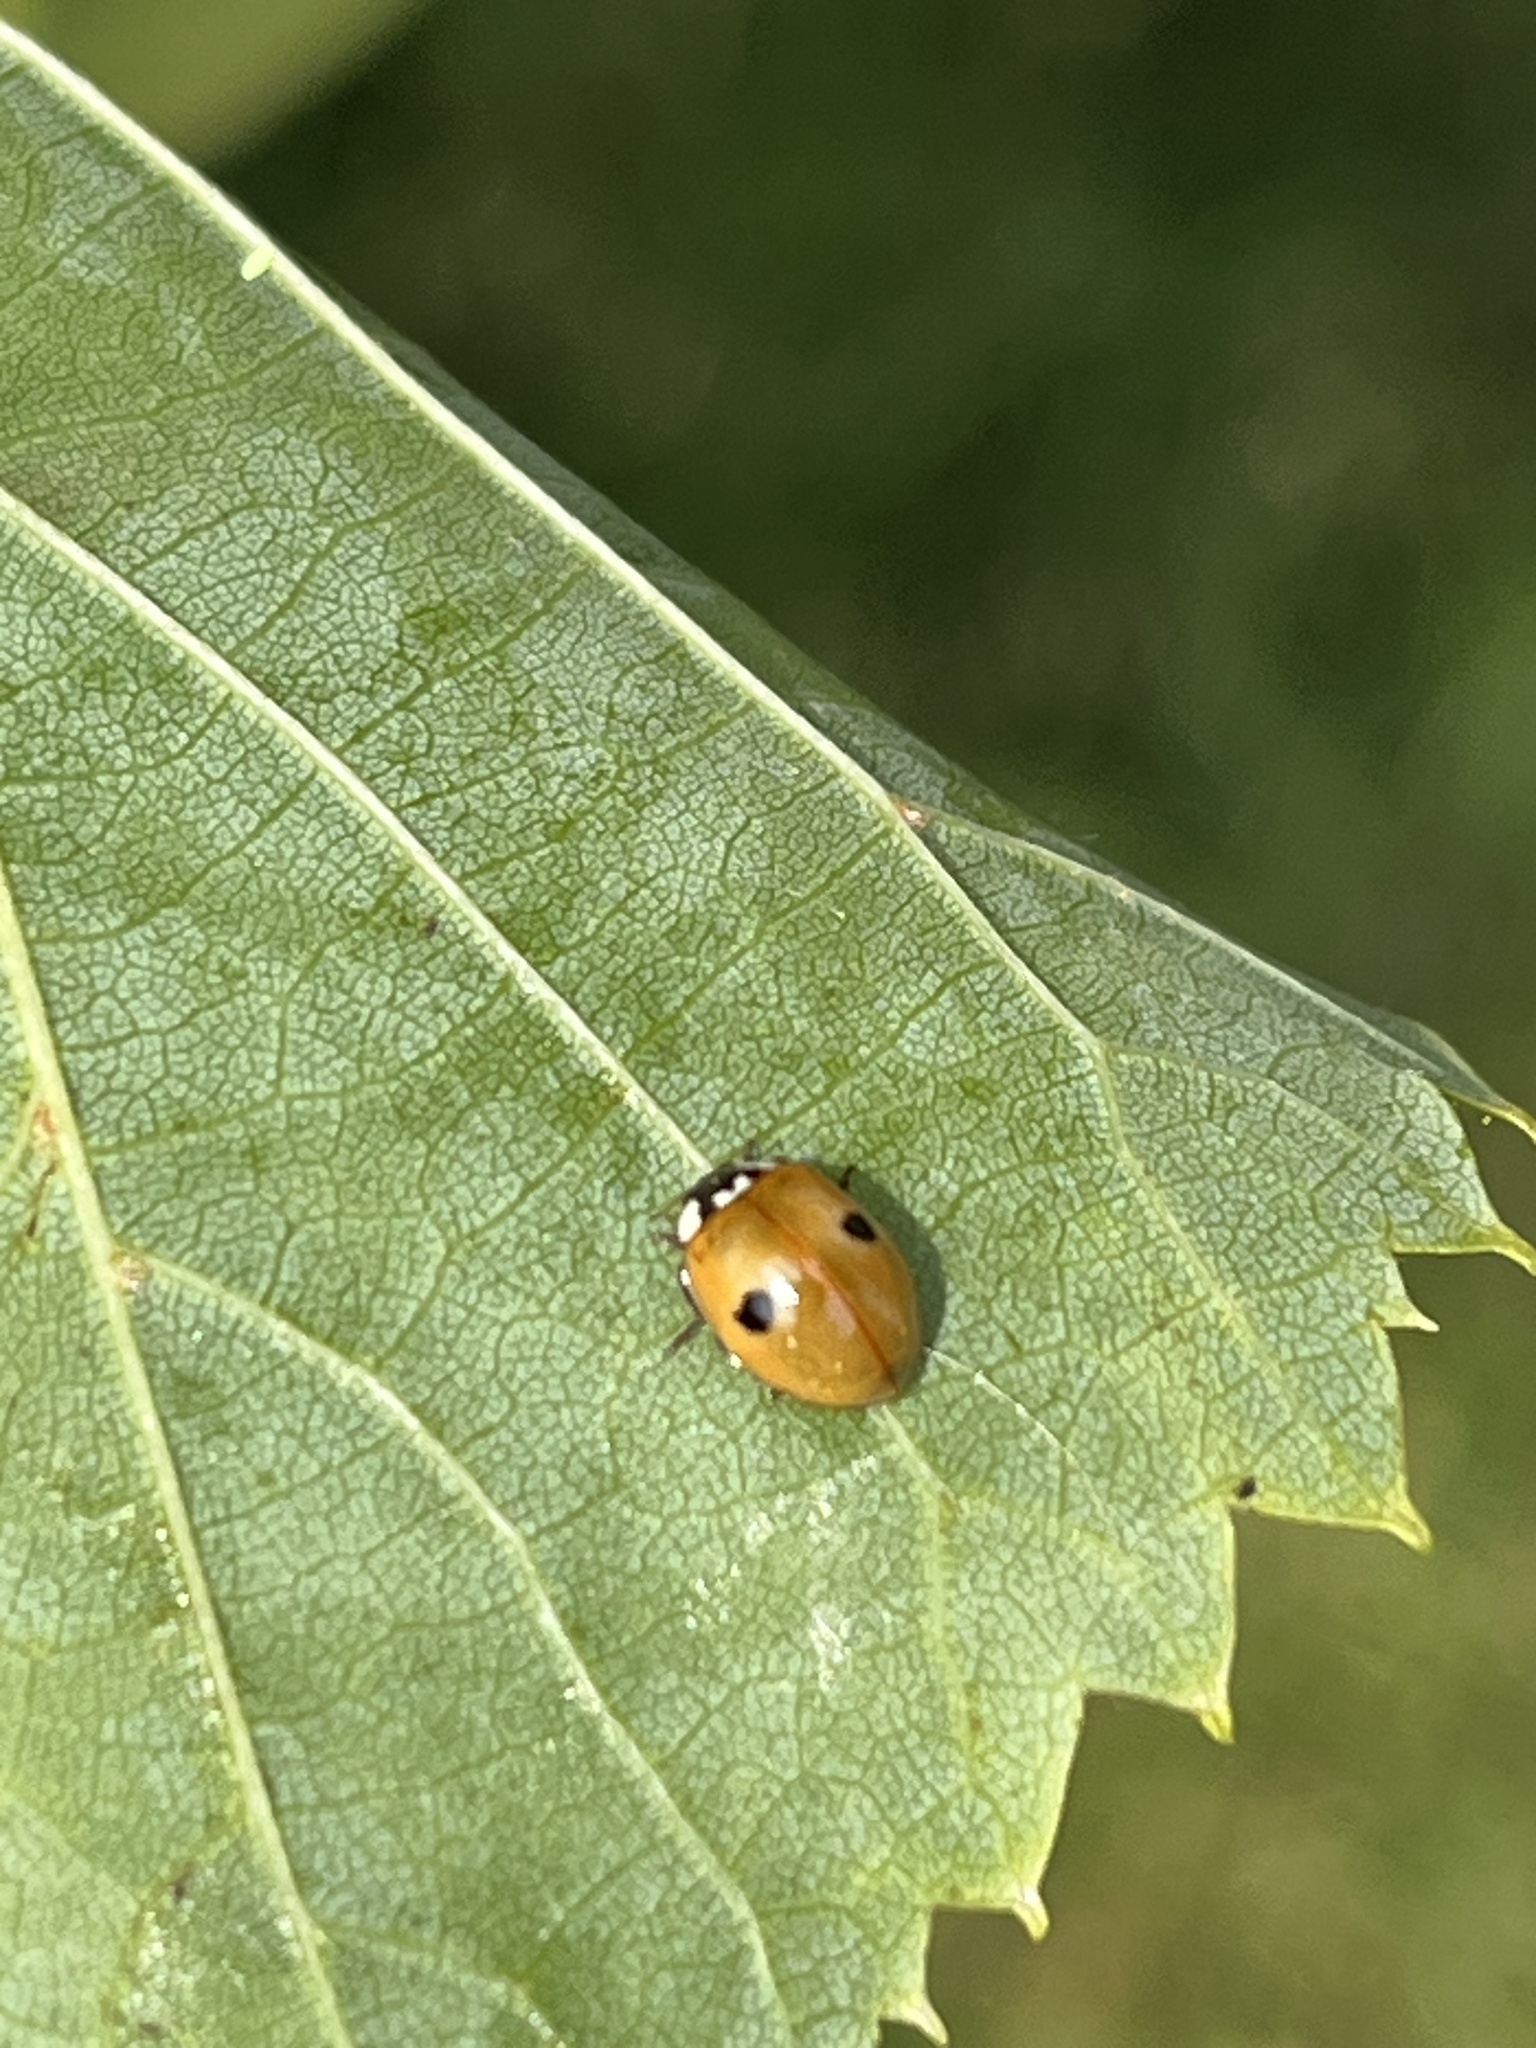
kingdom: Animalia
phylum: Arthropoda
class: Insecta
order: Coleoptera
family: Coccinellidae
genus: Adalia
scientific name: Adalia bipunctata
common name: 2-spot ladybird
